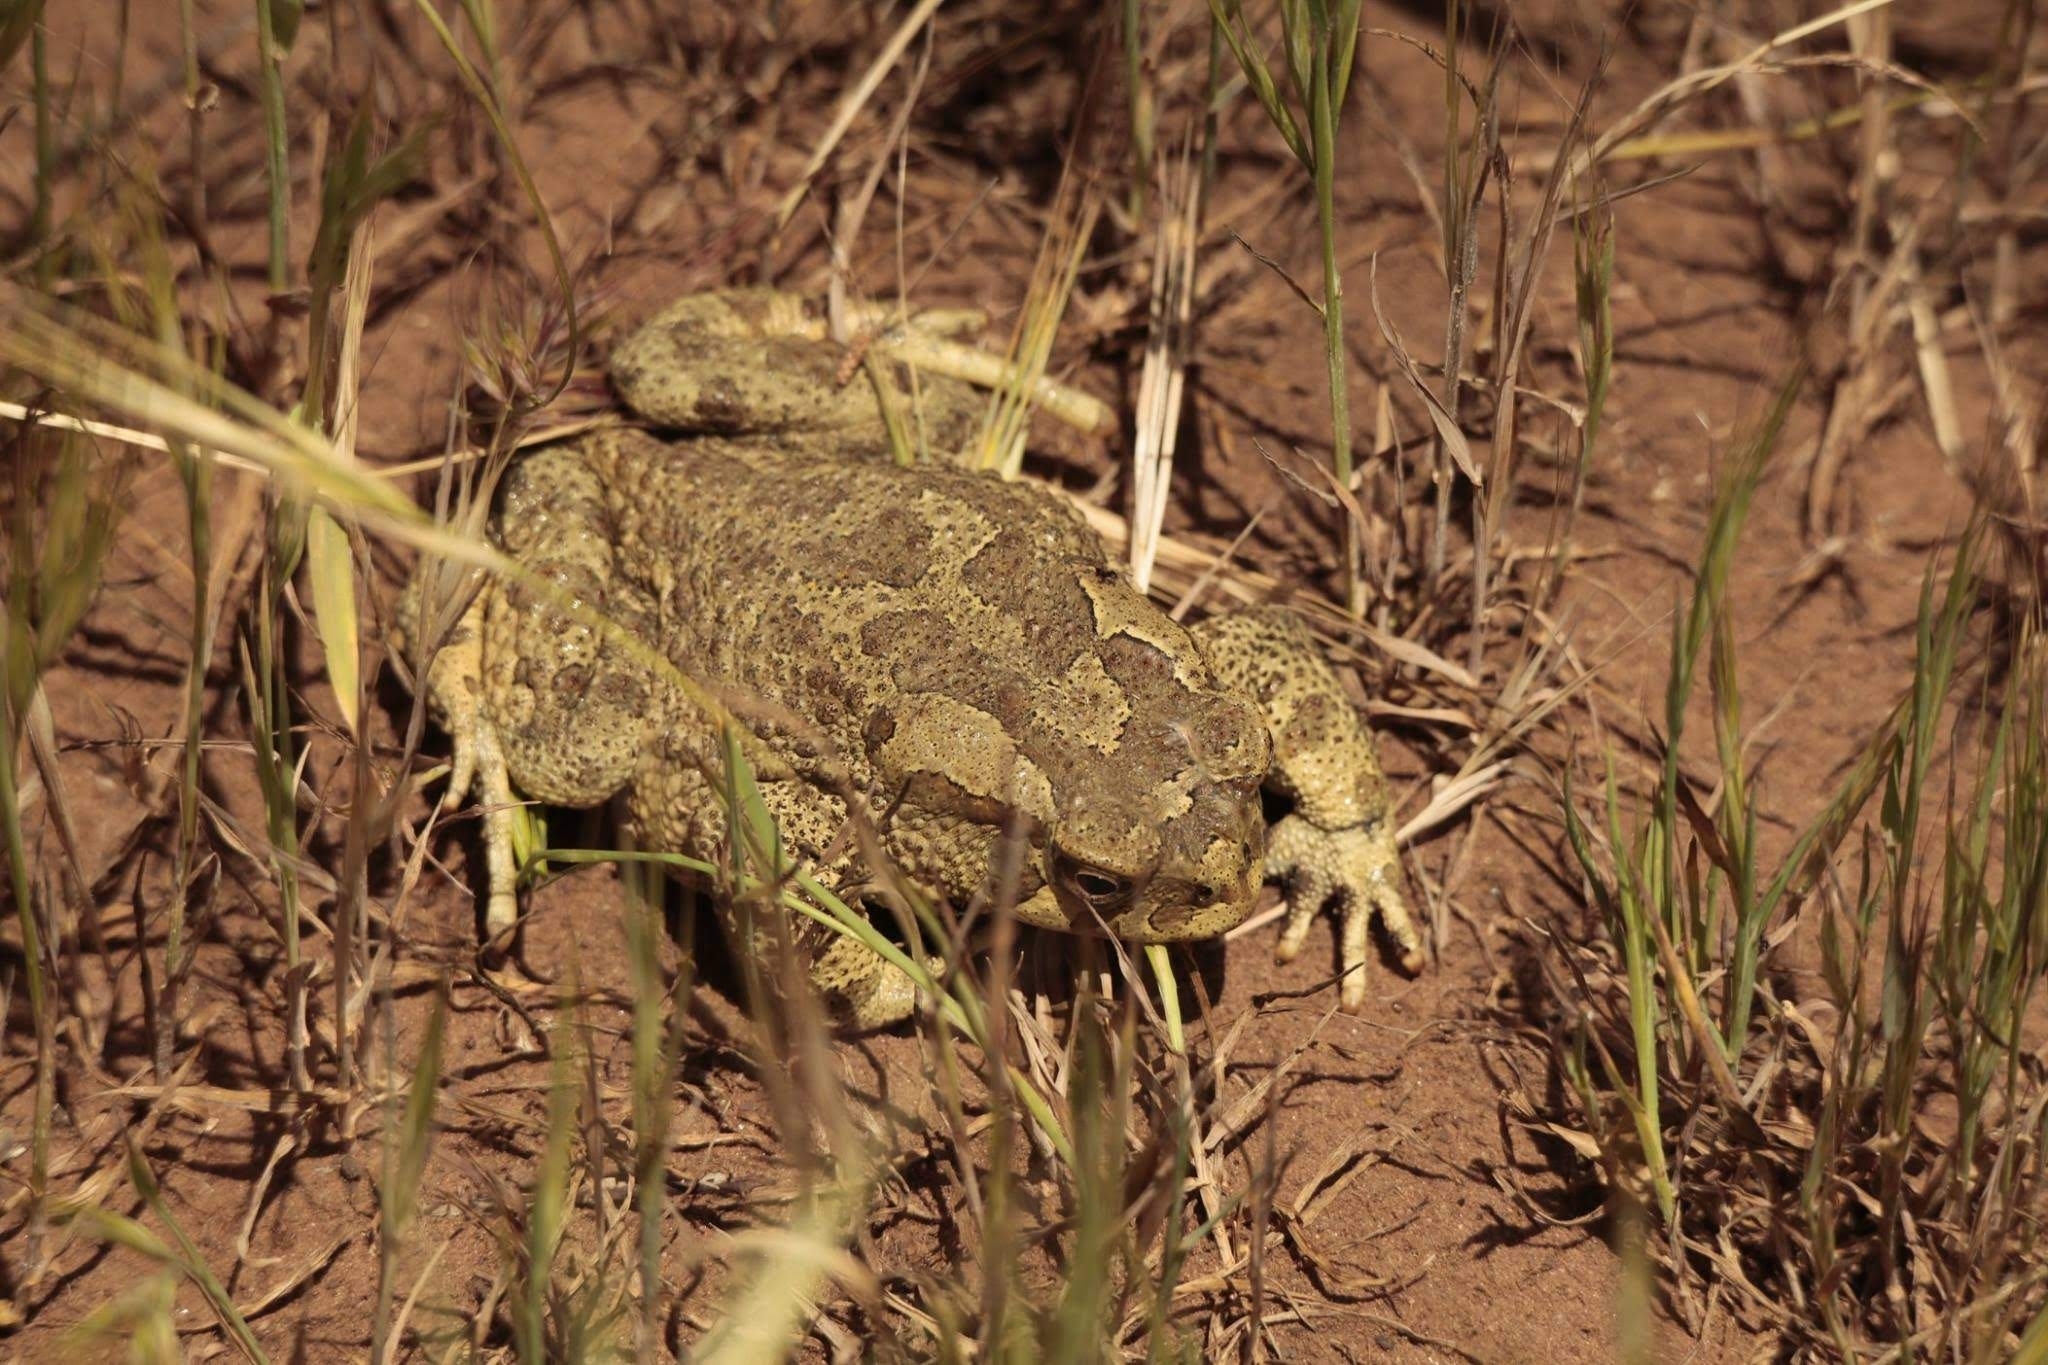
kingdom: Animalia
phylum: Chordata
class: Amphibia
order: Anura
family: Bufonidae
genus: Sclerophrys
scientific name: Sclerophrys mauritanica
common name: Berber toad
